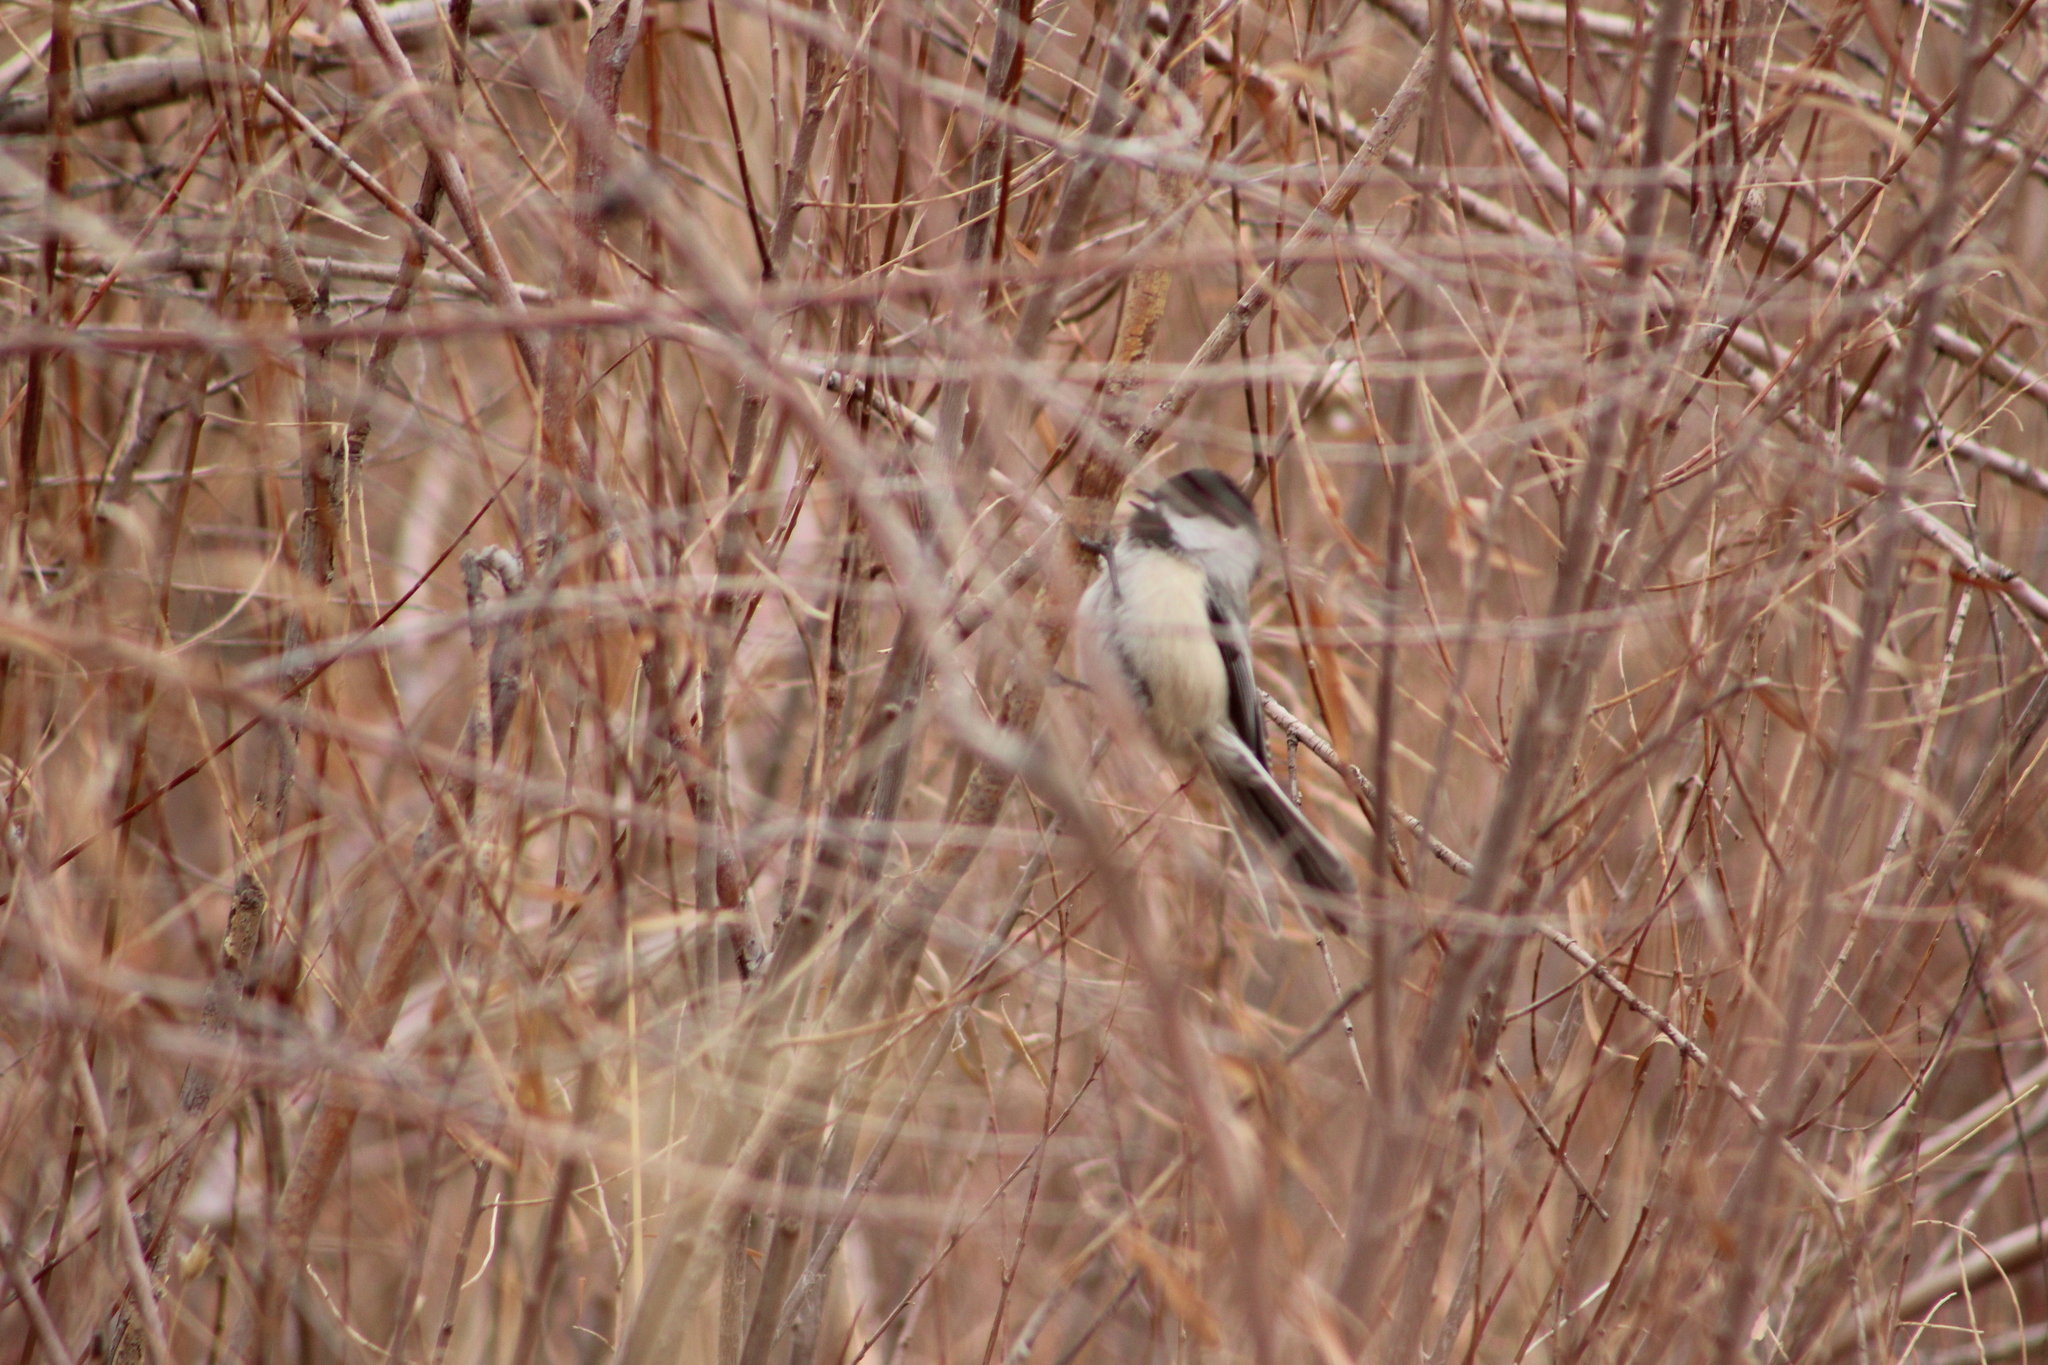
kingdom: Animalia
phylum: Chordata
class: Aves
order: Passeriformes
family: Paridae
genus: Poecile
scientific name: Poecile atricapillus
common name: Black-capped chickadee
